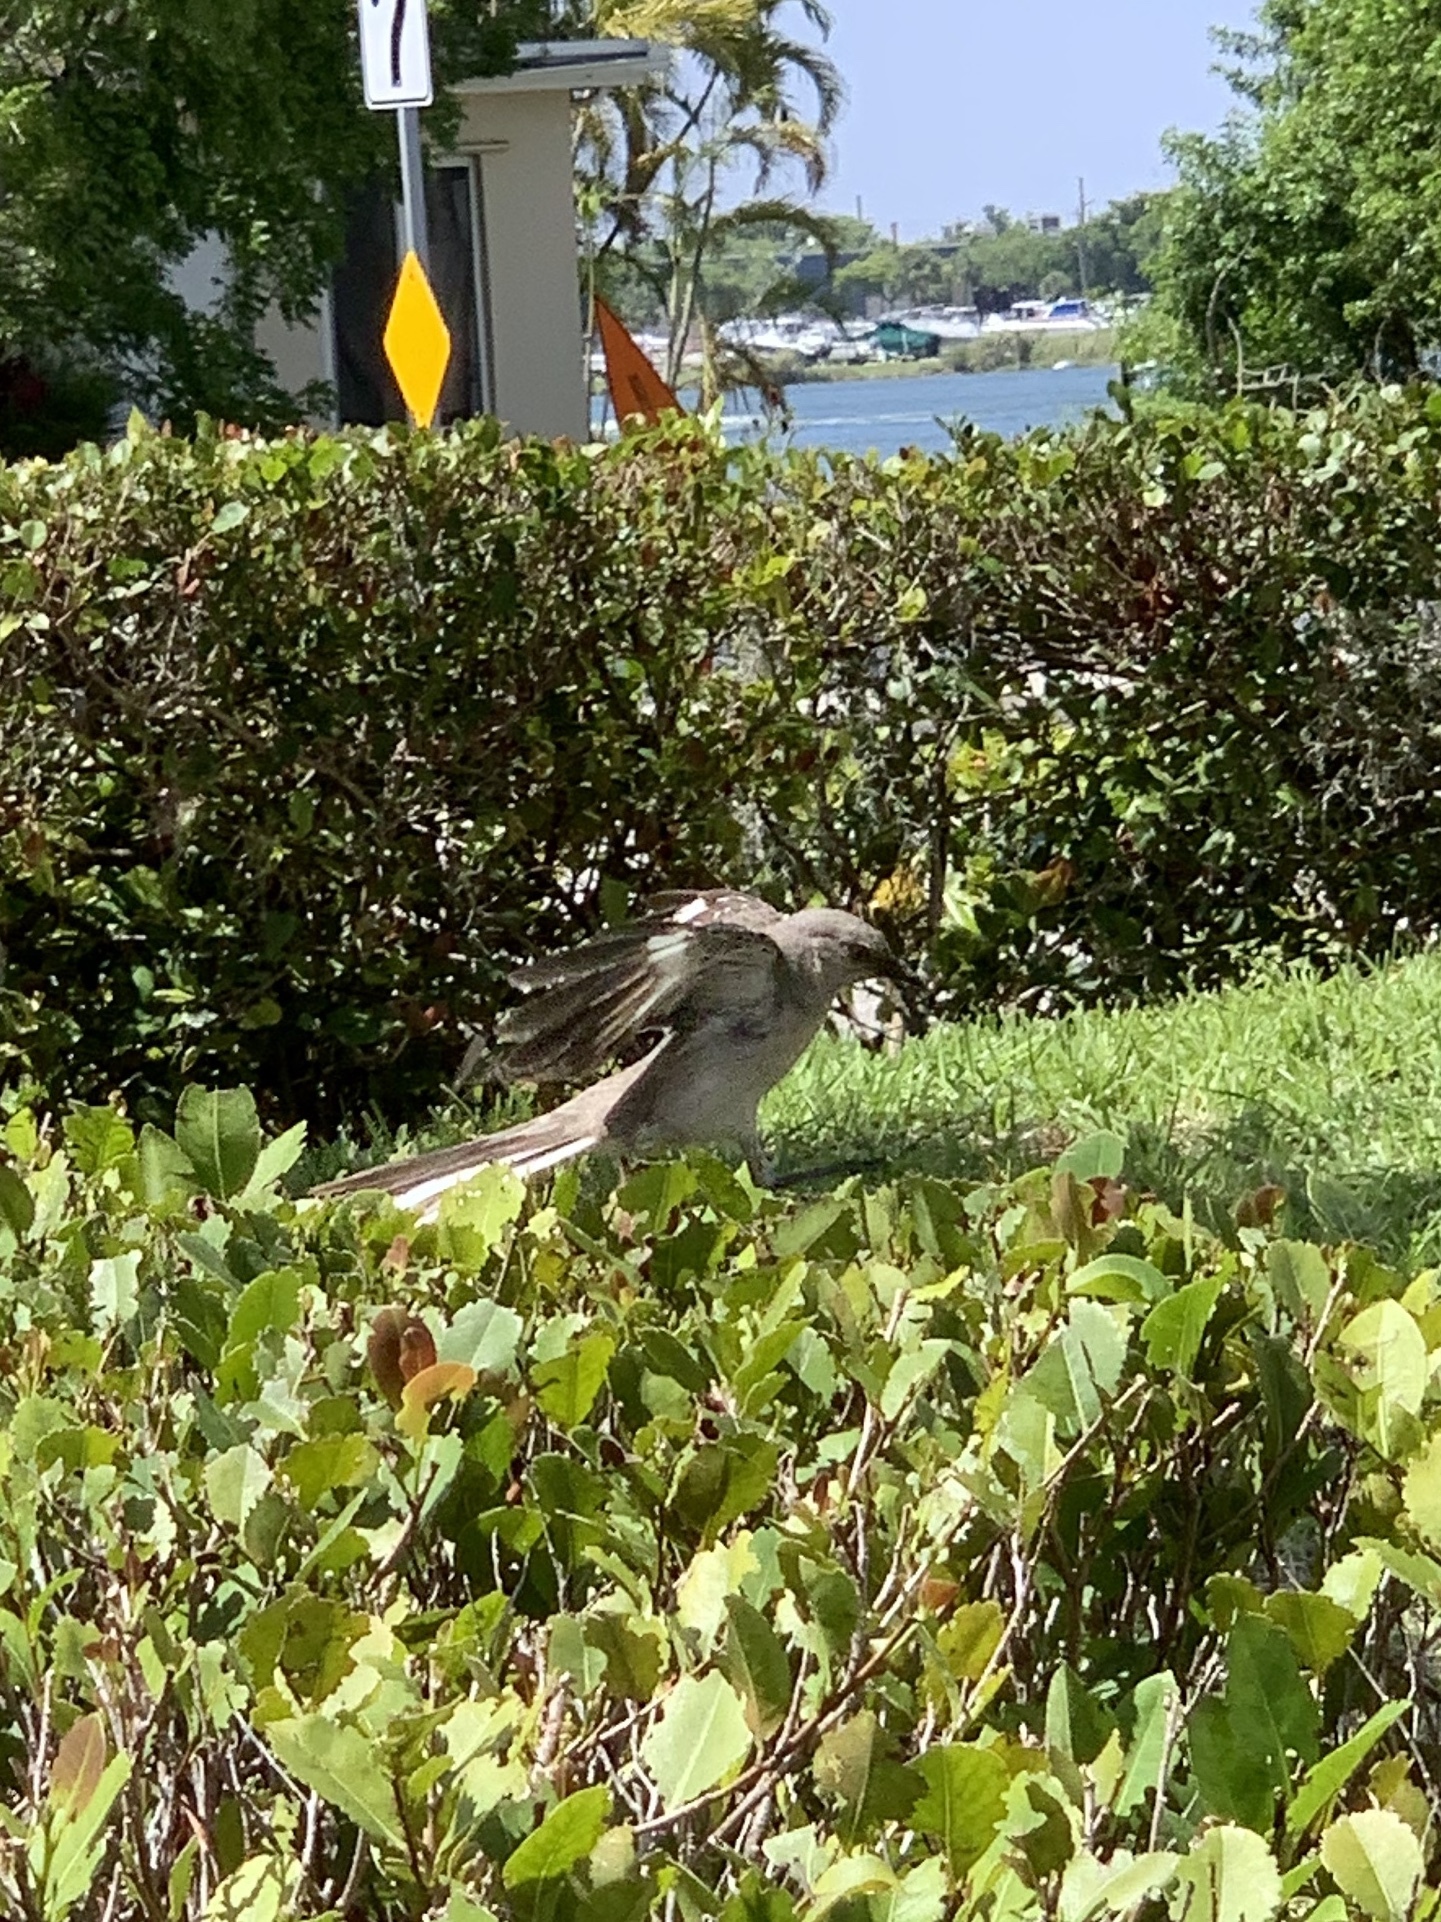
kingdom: Animalia
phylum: Chordata
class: Aves
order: Passeriformes
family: Mimidae
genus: Mimus
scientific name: Mimus polyglottos
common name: Northern mockingbird
